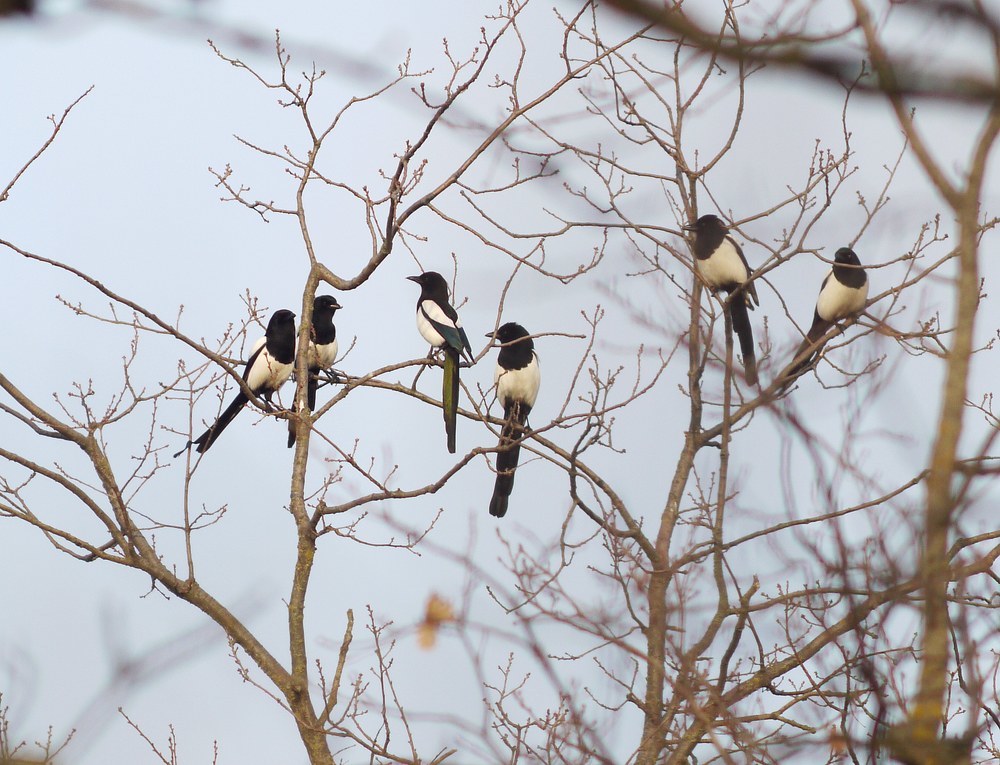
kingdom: Animalia
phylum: Chordata
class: Aves
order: Passeriformes
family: Corvidae
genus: Pica
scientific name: Pica pica
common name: Eurasian magpie
